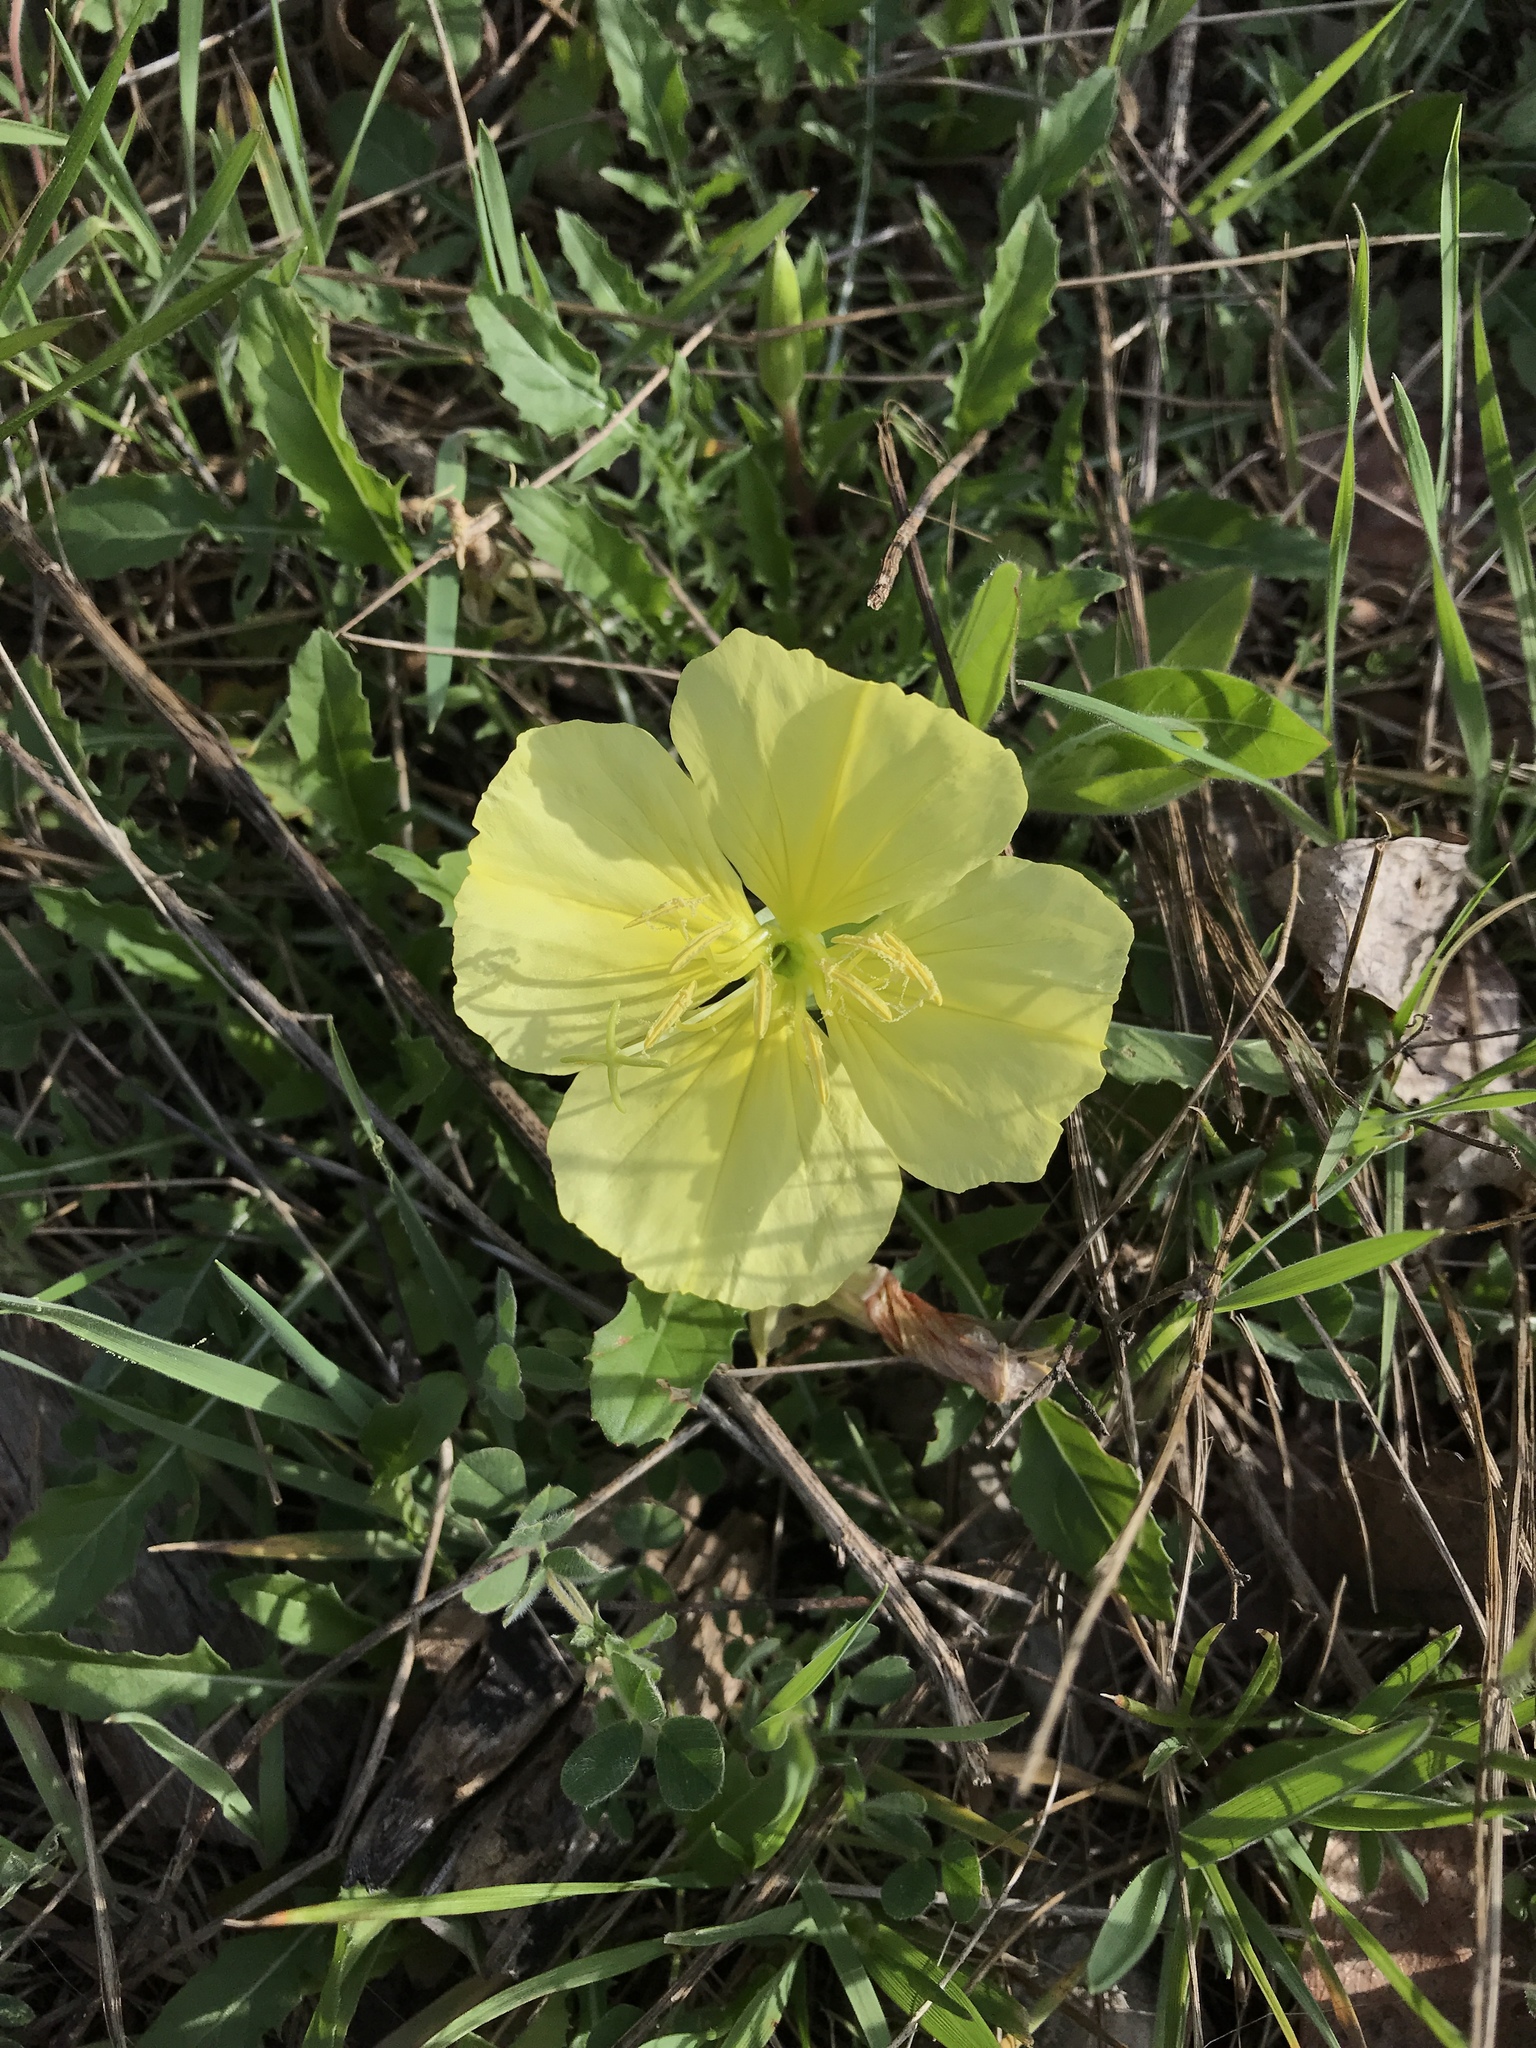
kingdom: Plantae
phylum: Tracheophyta
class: Magnoliopsida
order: Myrtales
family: Onagraceae
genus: Oenothera
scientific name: Oenothera triloba
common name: Sessile evening-primrose
